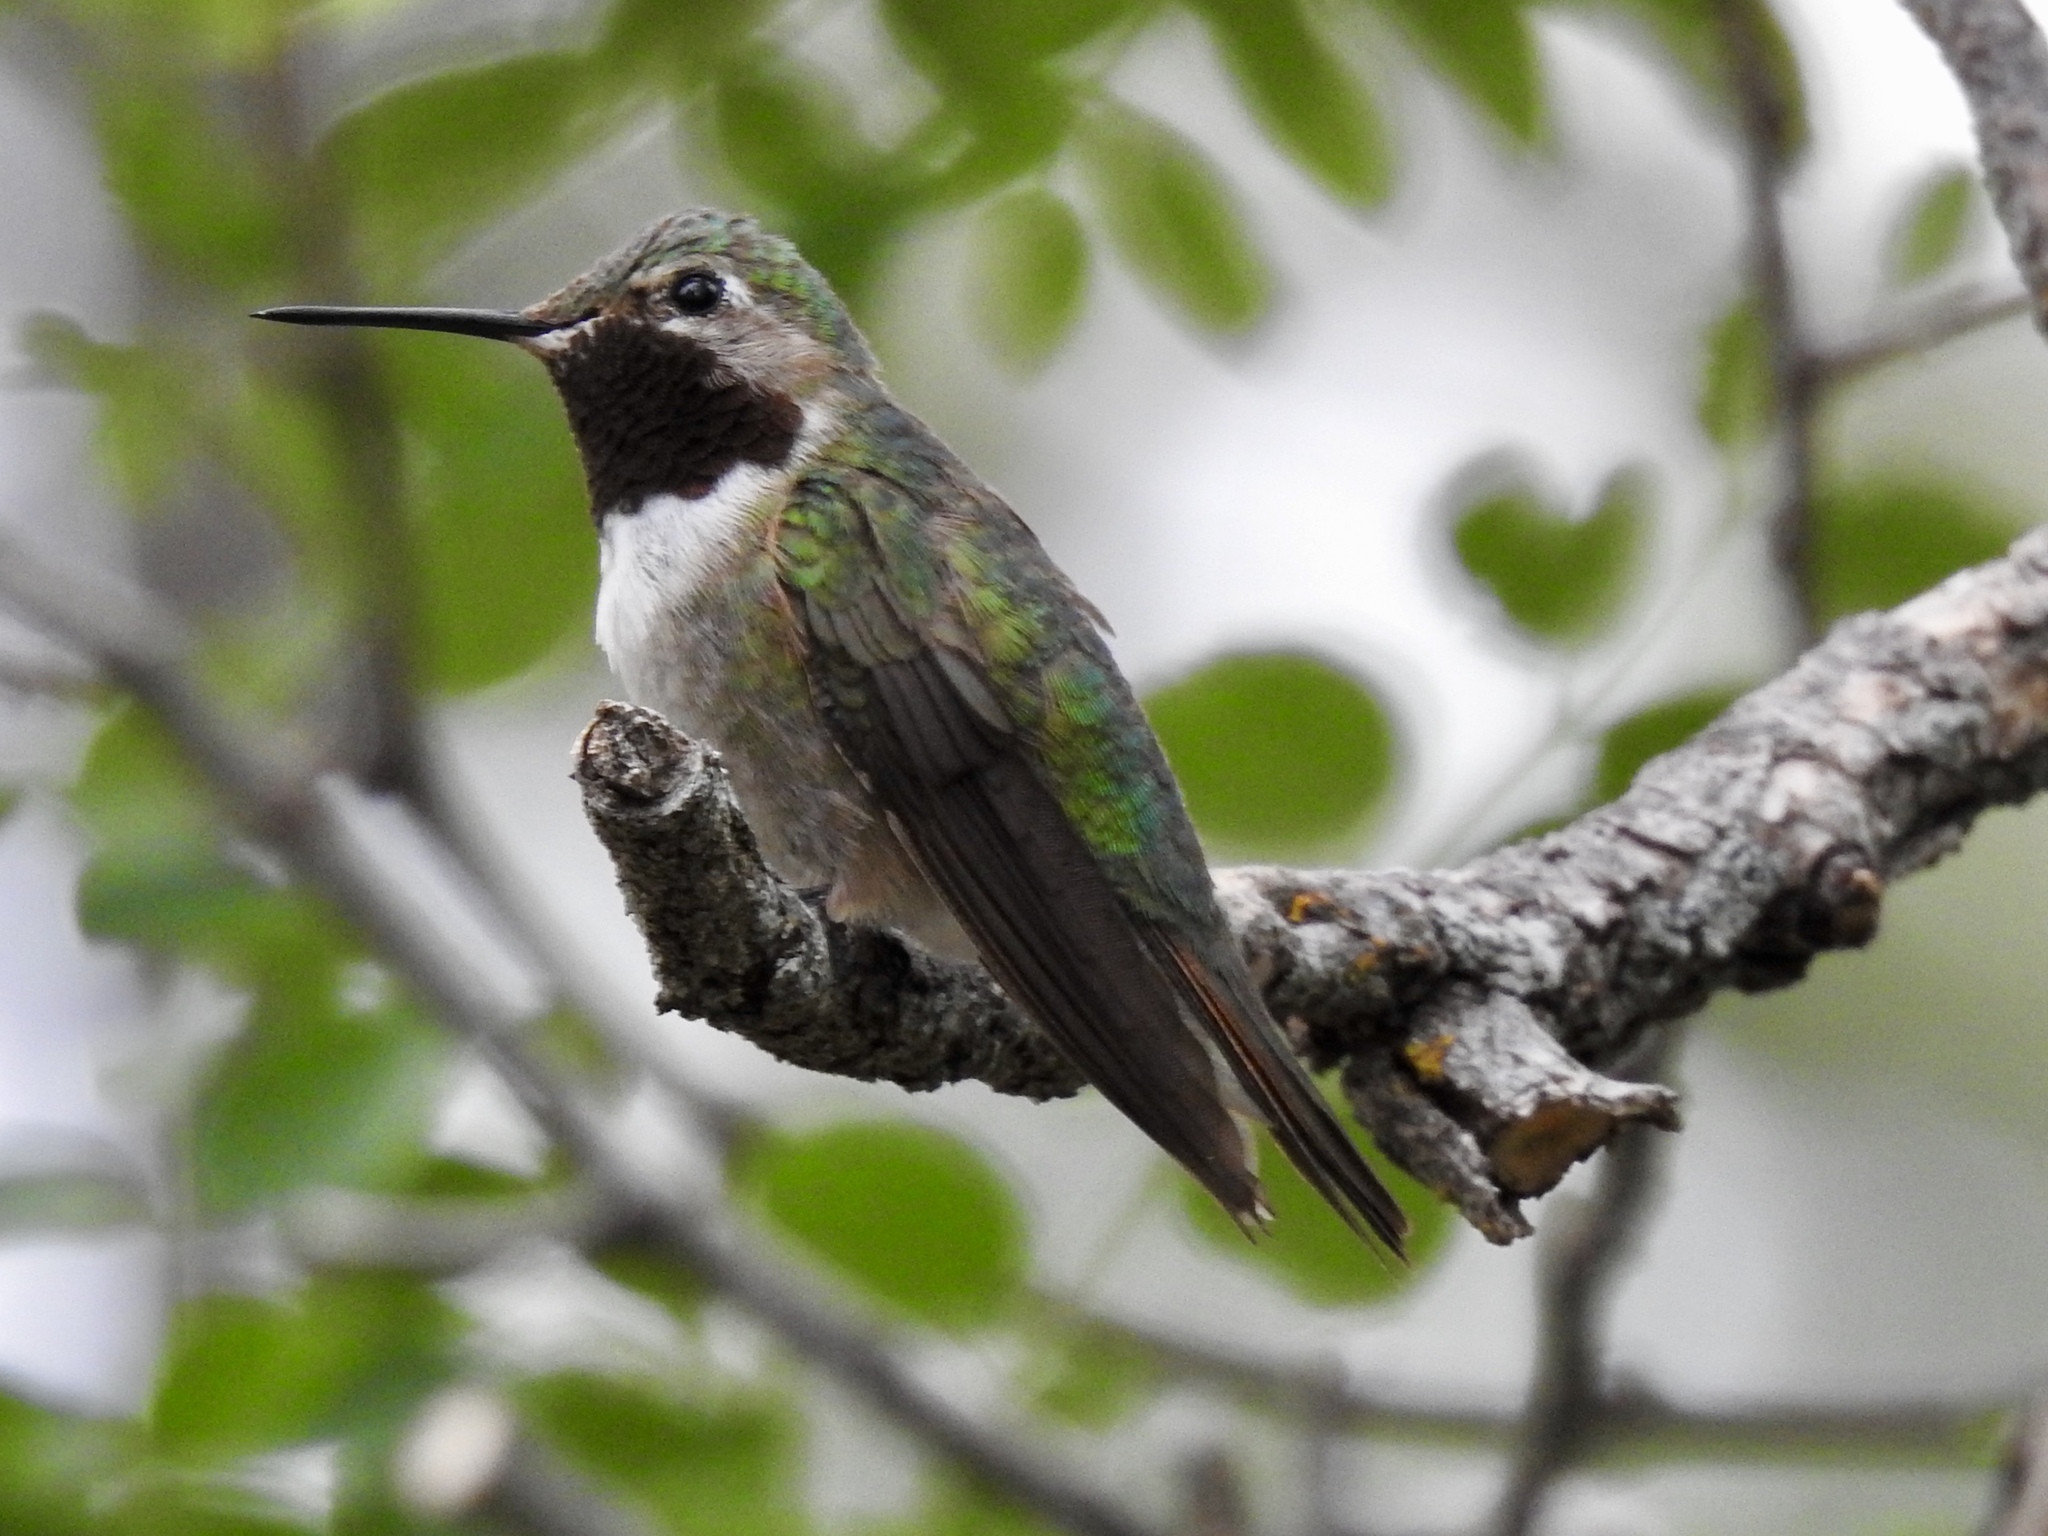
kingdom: Animalia
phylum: Chordata
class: Aves
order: Apodiformes
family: Trochilidae
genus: Selasphorus
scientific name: Selasphorus platycercus
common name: Broad-tailed hummingbird
